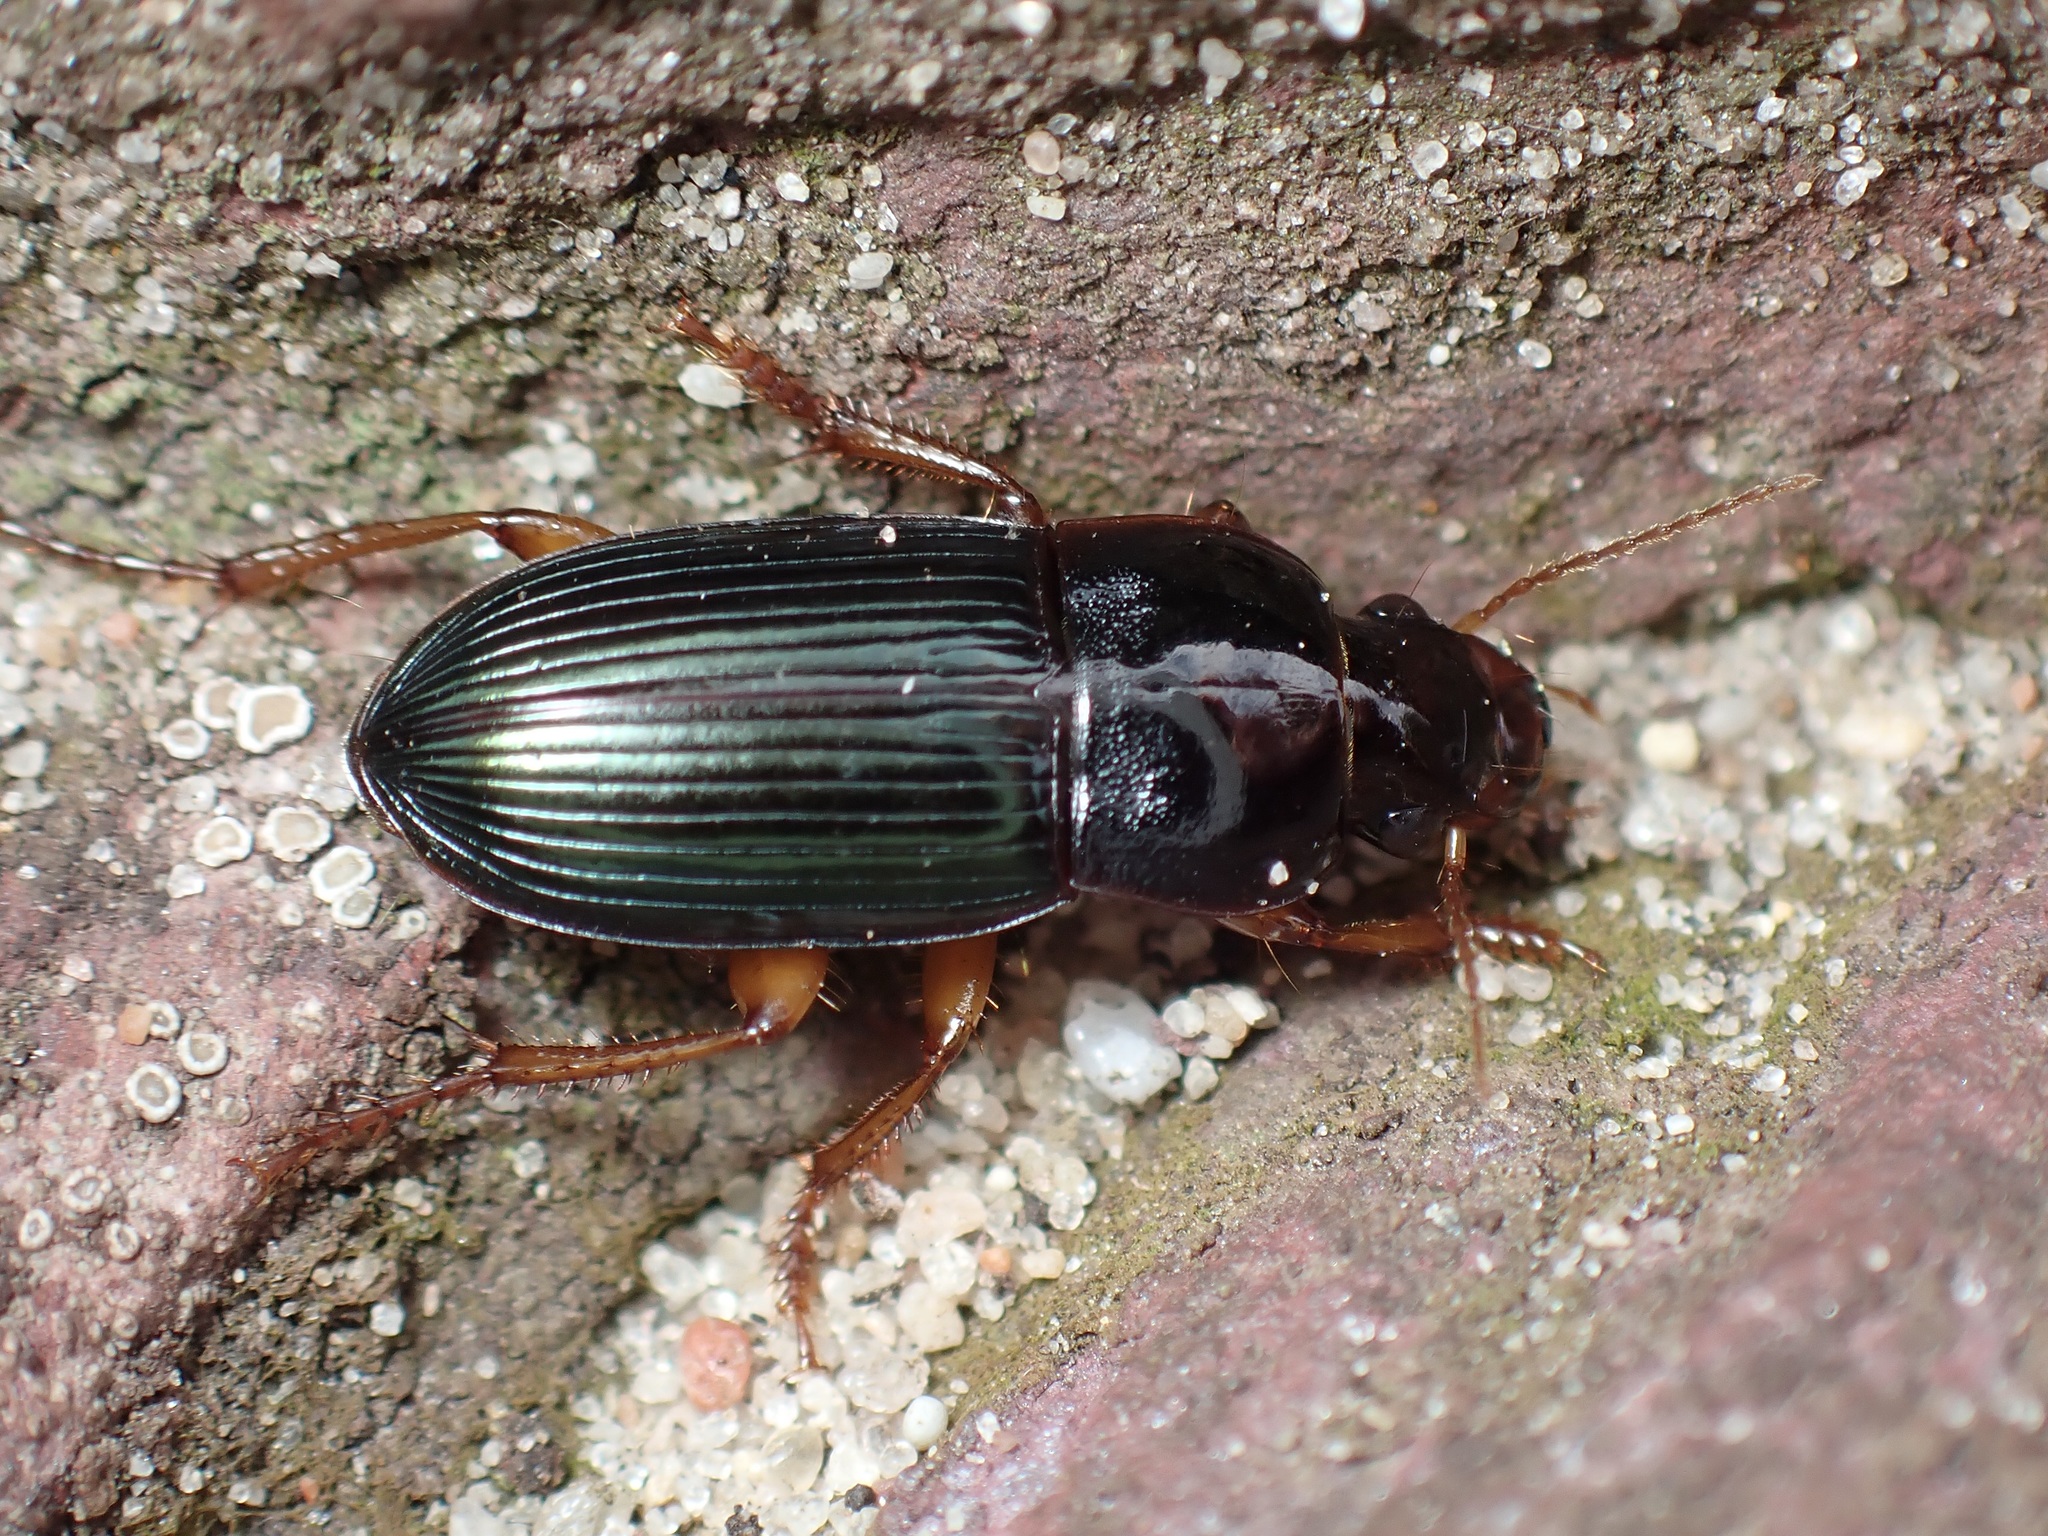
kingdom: Animalia
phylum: Arthropoda
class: Insecta
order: Coleoptera
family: Carabidae
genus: Harpalus
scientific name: Harpalus smaragdinus
